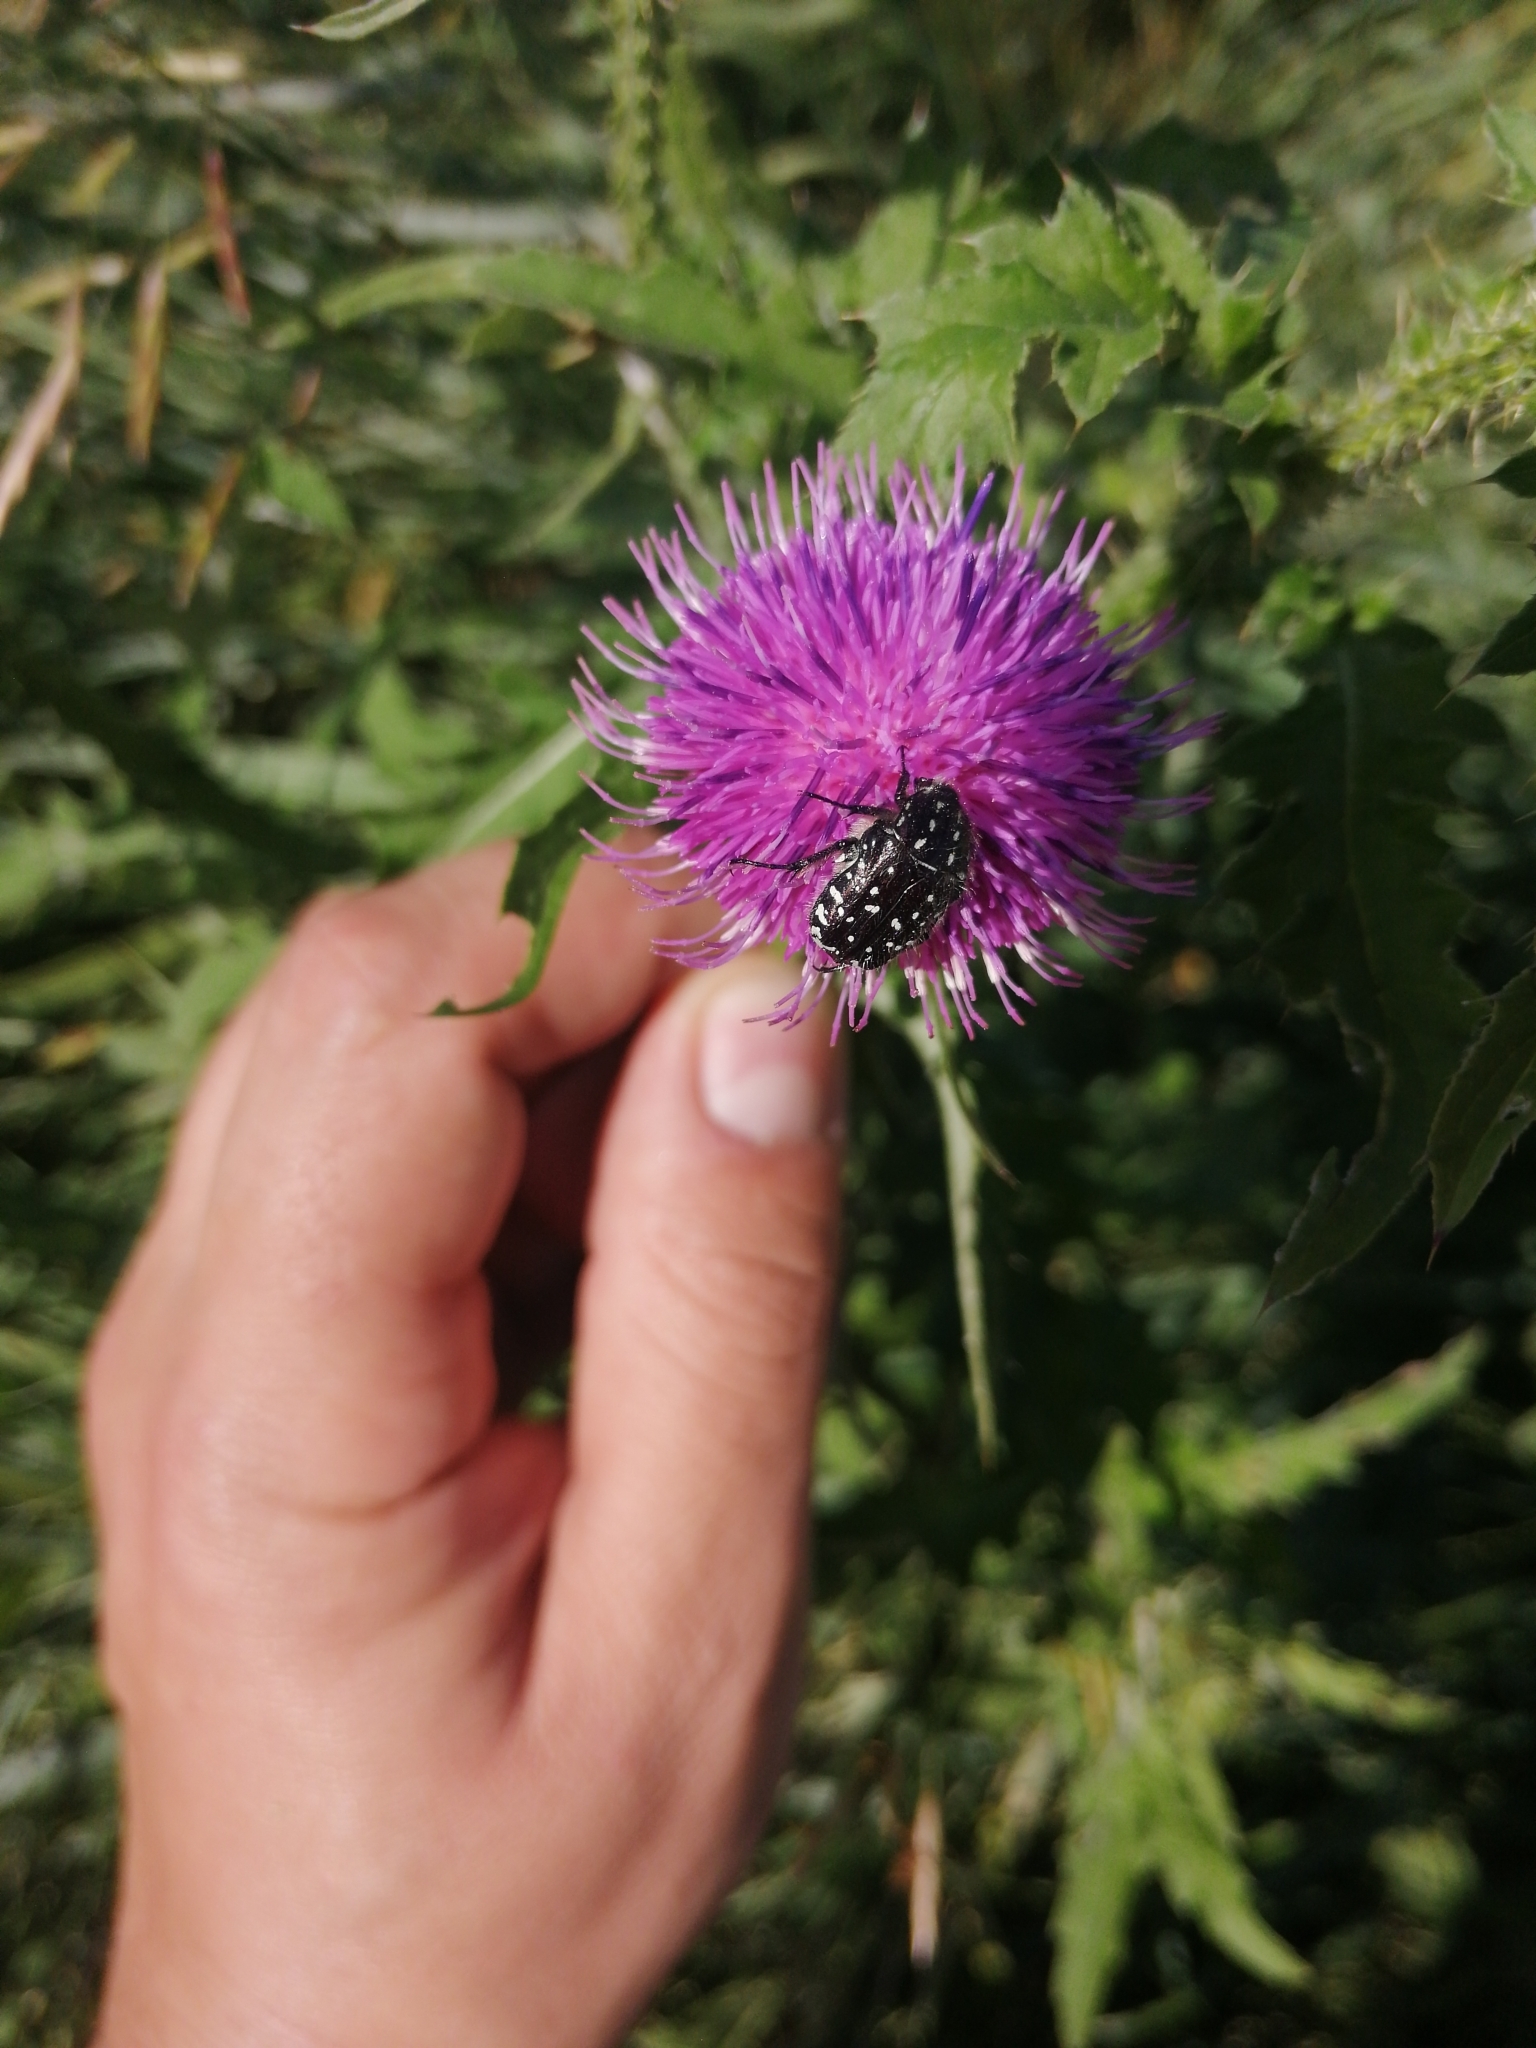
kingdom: Animalia
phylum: Arthropoda
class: Insecta
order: Coleoptera
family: Scarabaeidae
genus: Oxythyrea
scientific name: Oxythyrea funesta
